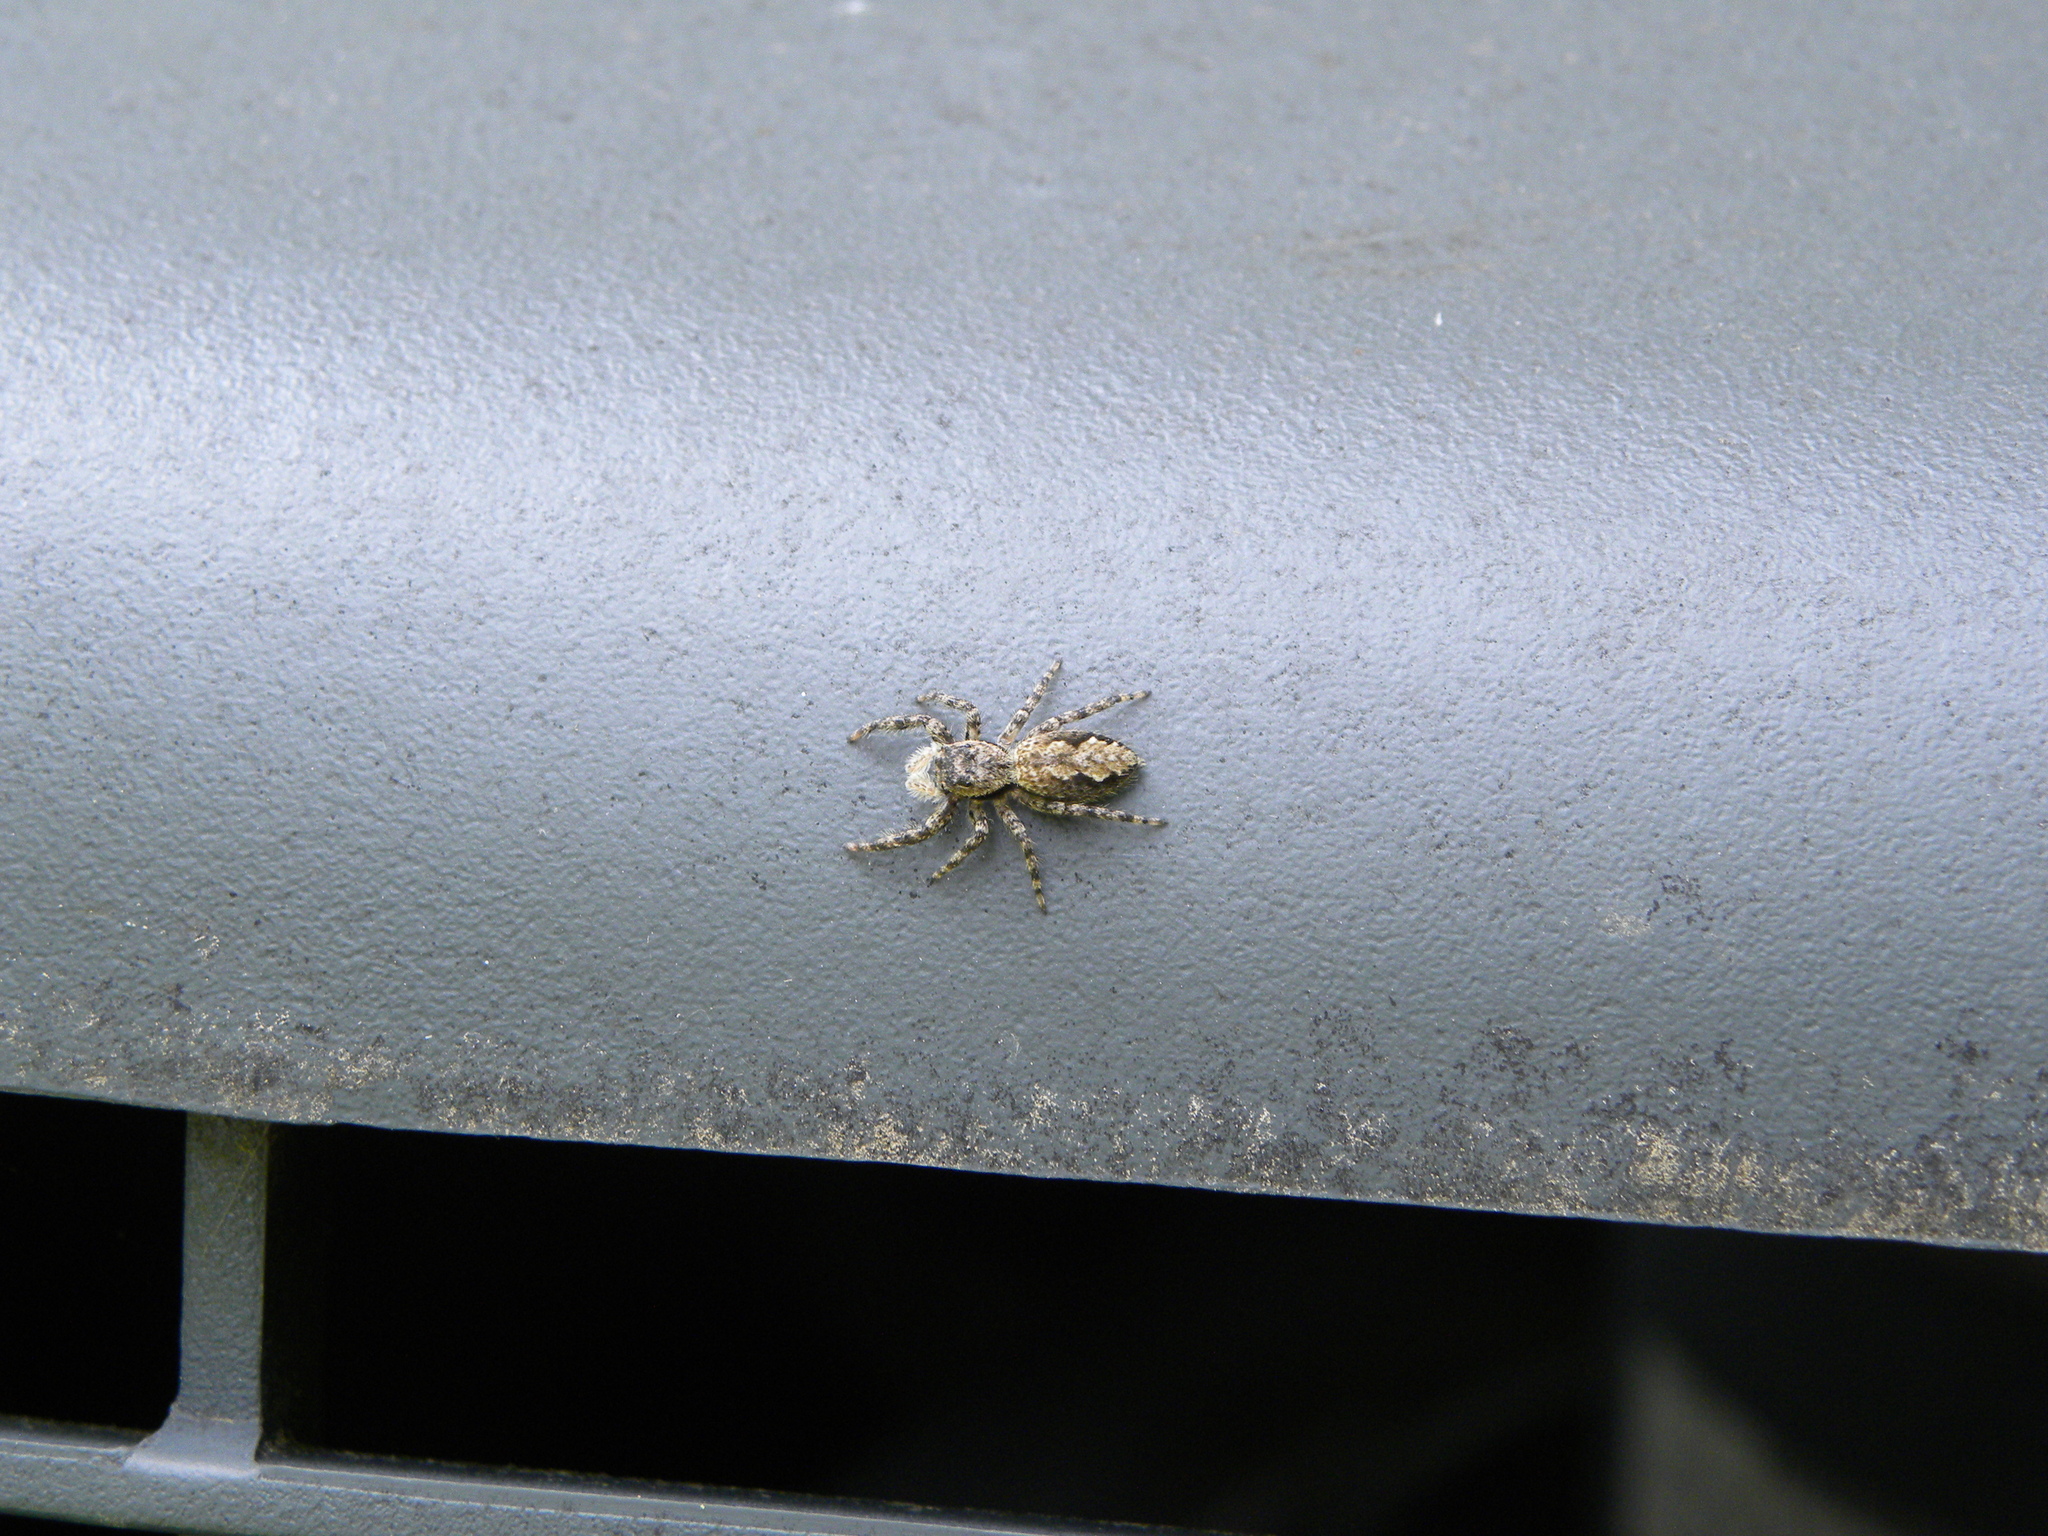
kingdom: Animalia
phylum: Arthropoda
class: Arachnida
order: Araneae
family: Salticidae
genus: Platycryptus
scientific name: Platycryptus undatus
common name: Tan jumping spider
